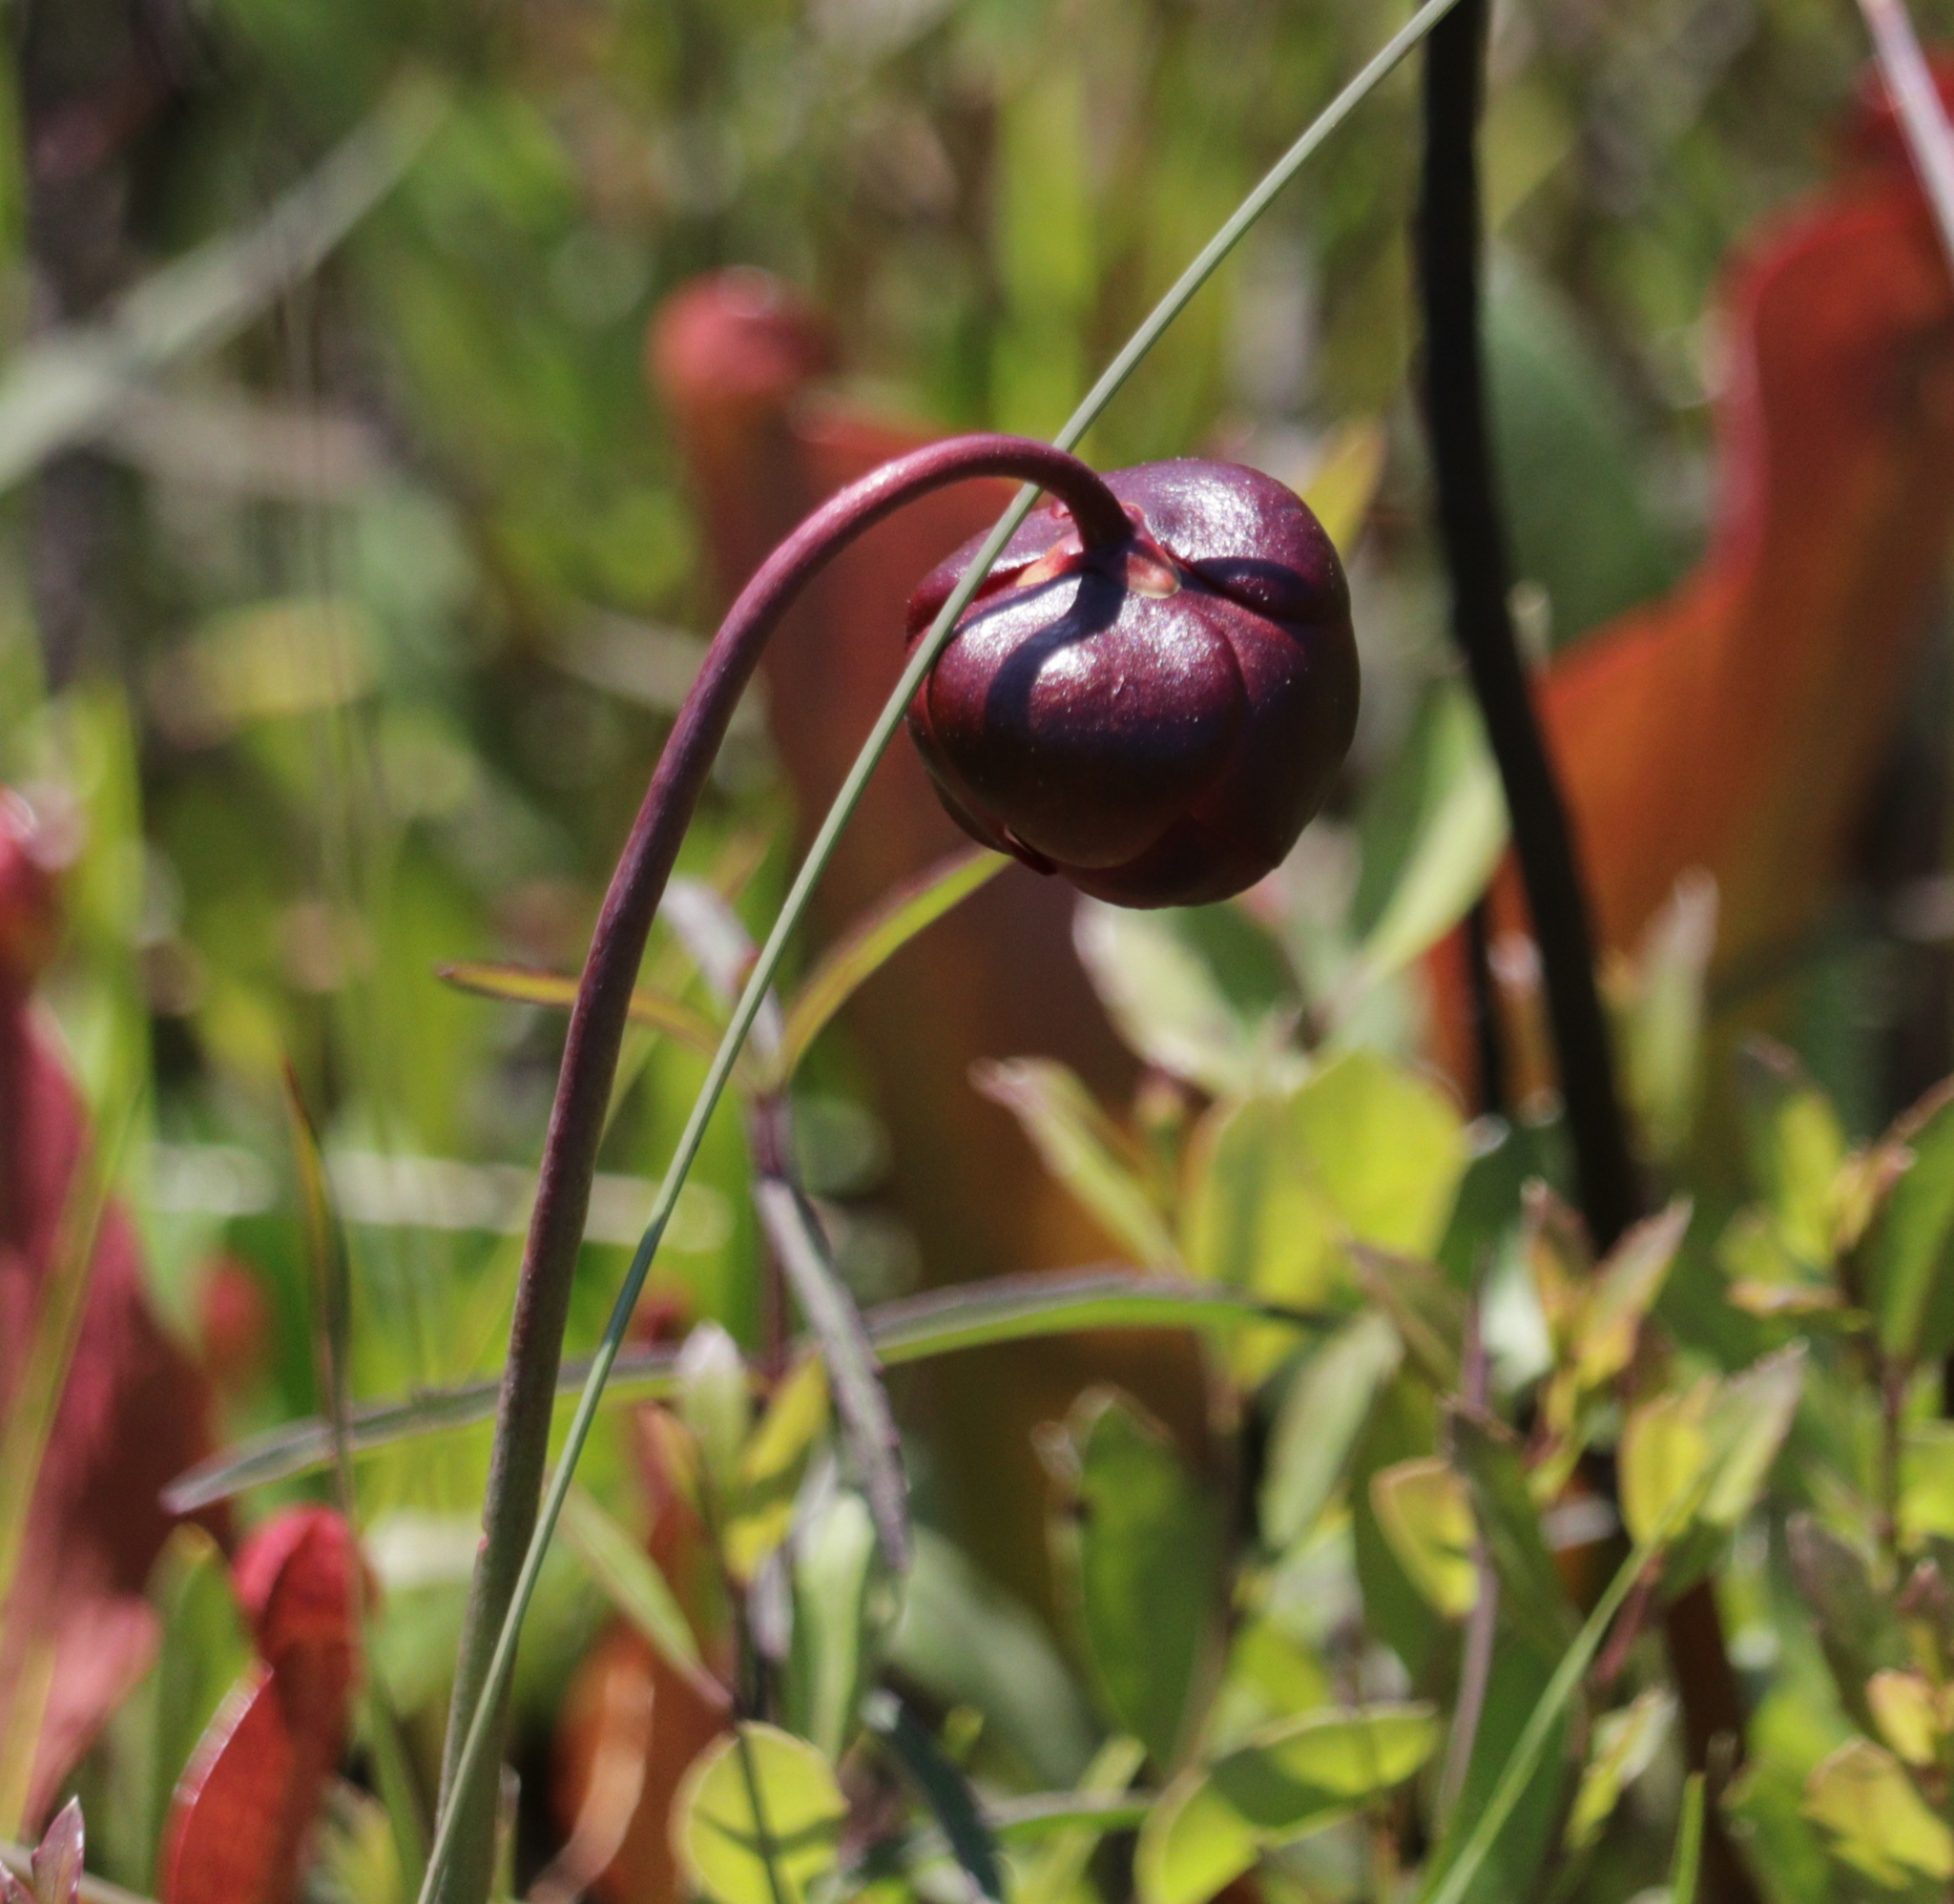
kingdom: Plantae
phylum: Tracheophyta
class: Magnoliopsida
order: Ericales
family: Sarraceniaceae
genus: Sarracenia
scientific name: Sarracenia psittacina
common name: Parrot pitcherplant
